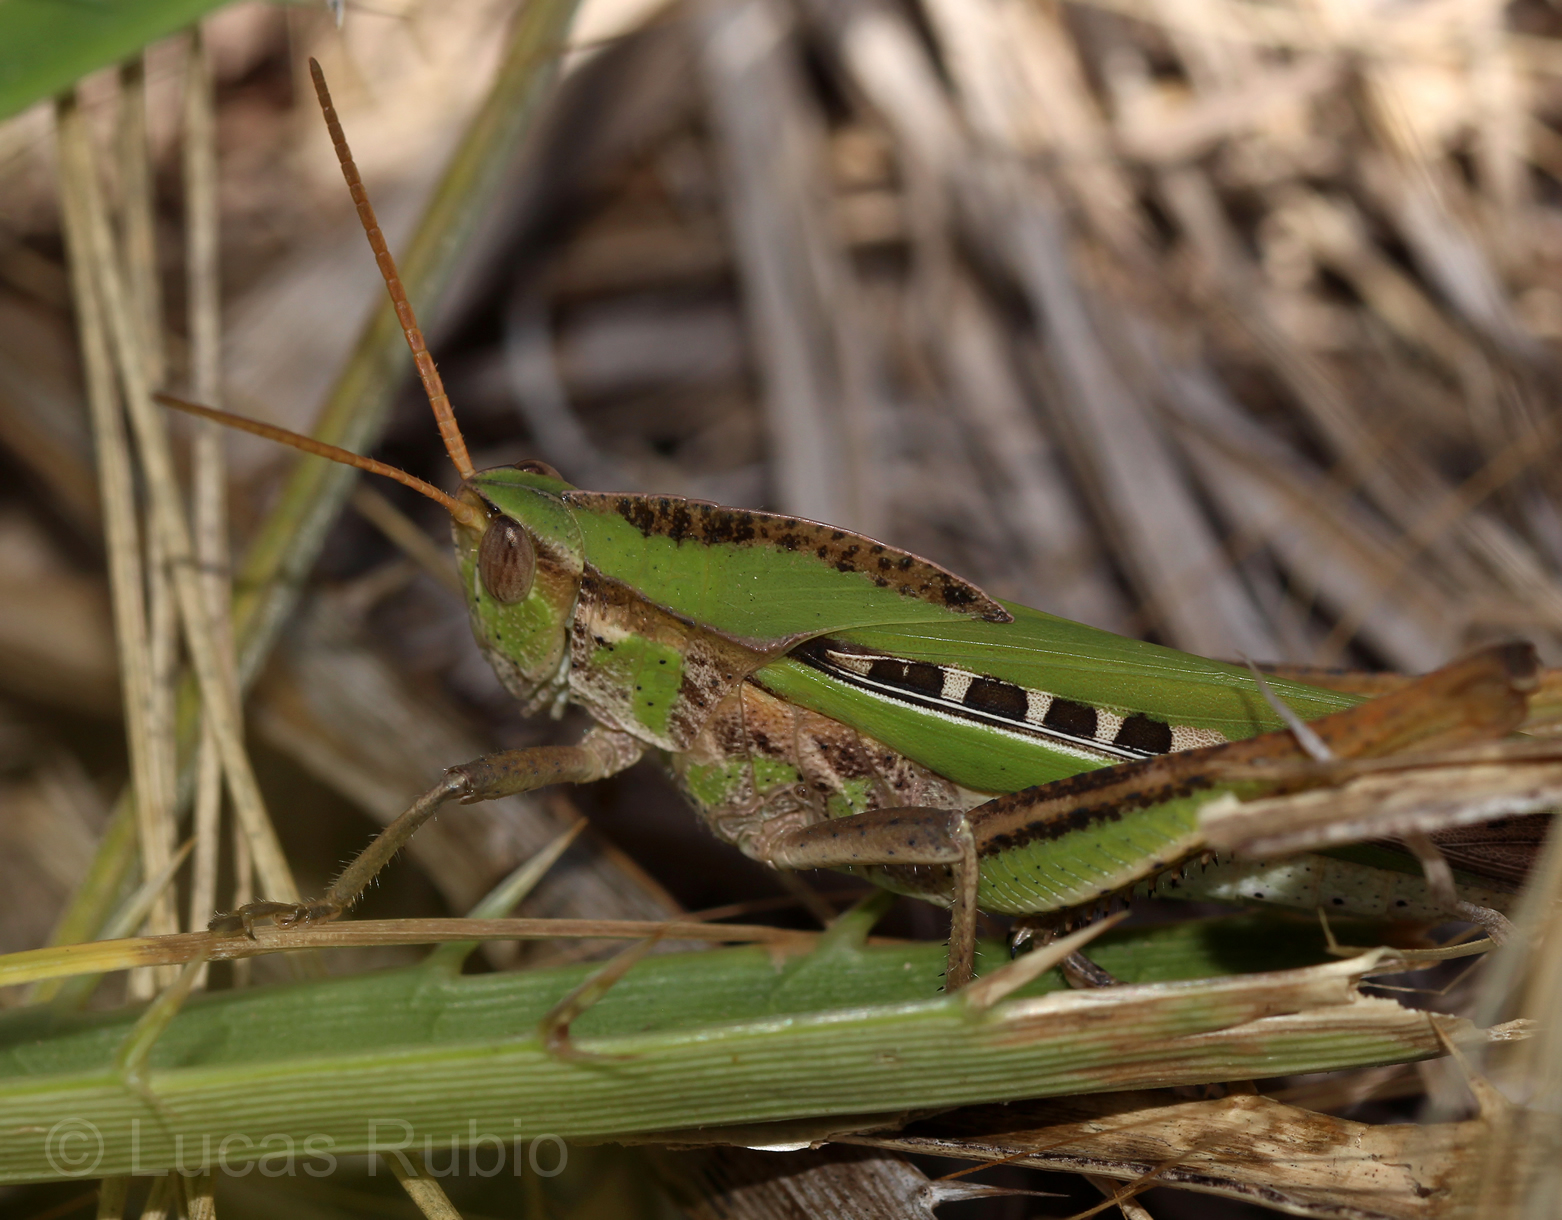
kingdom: Animalia
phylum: Arthropoda
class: Insecta
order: Orthoptera
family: Romaleidae
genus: Xyleus
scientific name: Xyleus laevipes
